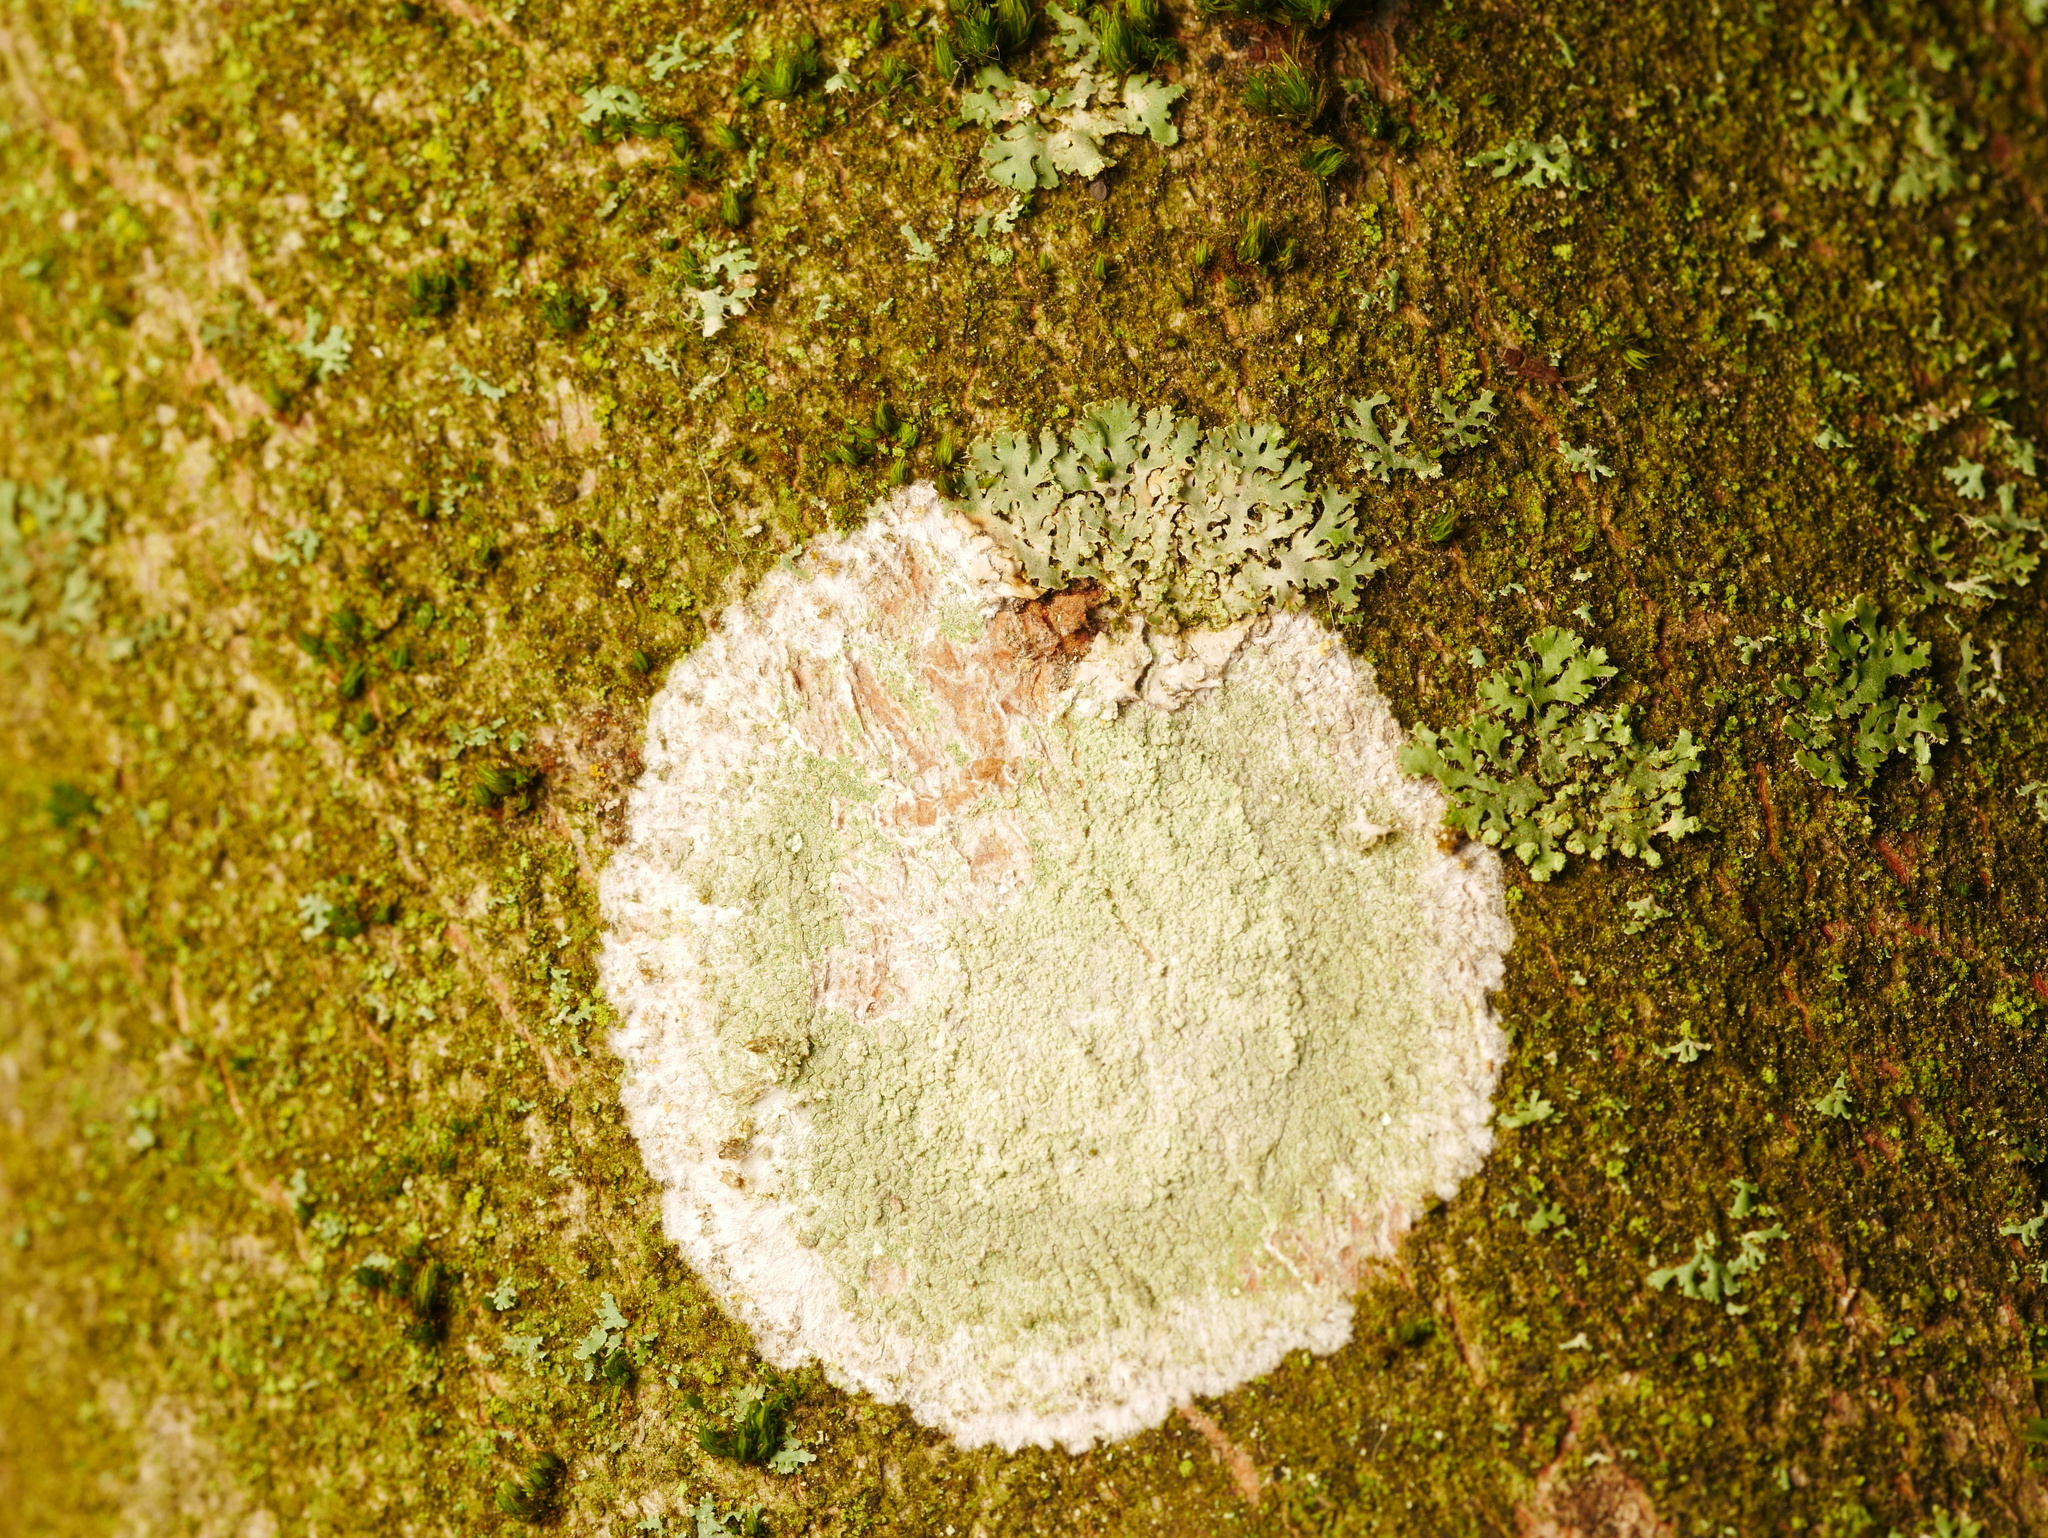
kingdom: Fungi
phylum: Ascomycota
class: Lecanoromycetes
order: Ostropales
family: Phlyctidaceae
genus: Phlyctis
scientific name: Phlyctis argena
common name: Whitewash lichen
